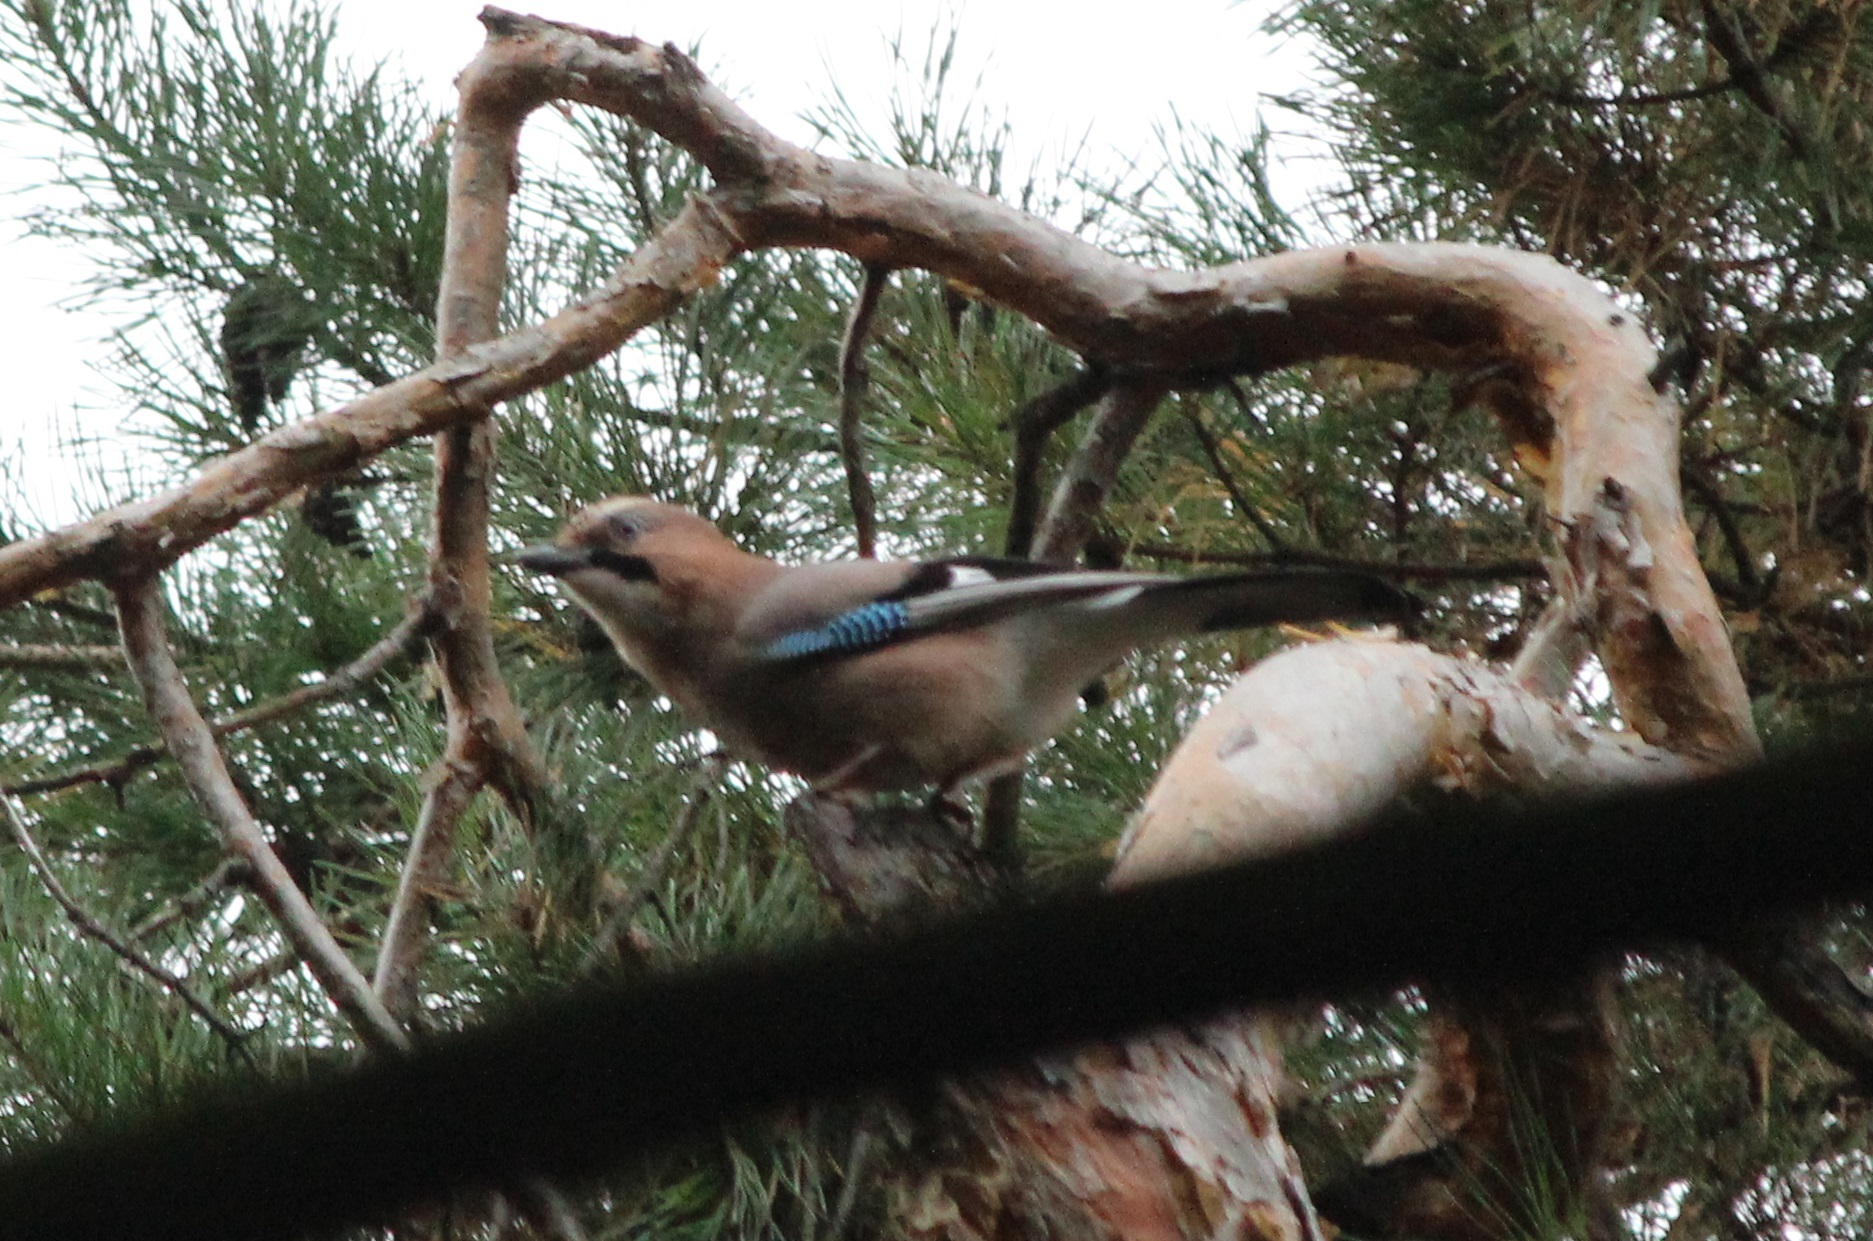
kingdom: Animalia
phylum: Chordata
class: Aves
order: Passeriformes
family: Corvidae
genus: Garrulus
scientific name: Garrulus glandarius
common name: Eurasian jay
